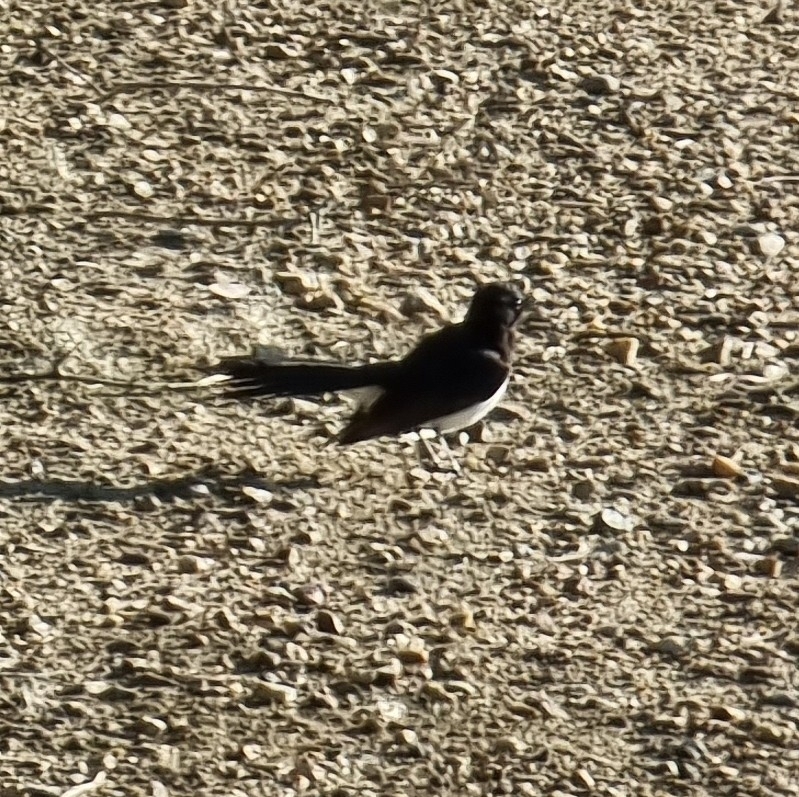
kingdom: Animalia
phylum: Chordata
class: Aves
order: Passeriformes
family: Rhipiduridae
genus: Rhipidura
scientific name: Rhipidura leucophrys
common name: Willie wagtail
